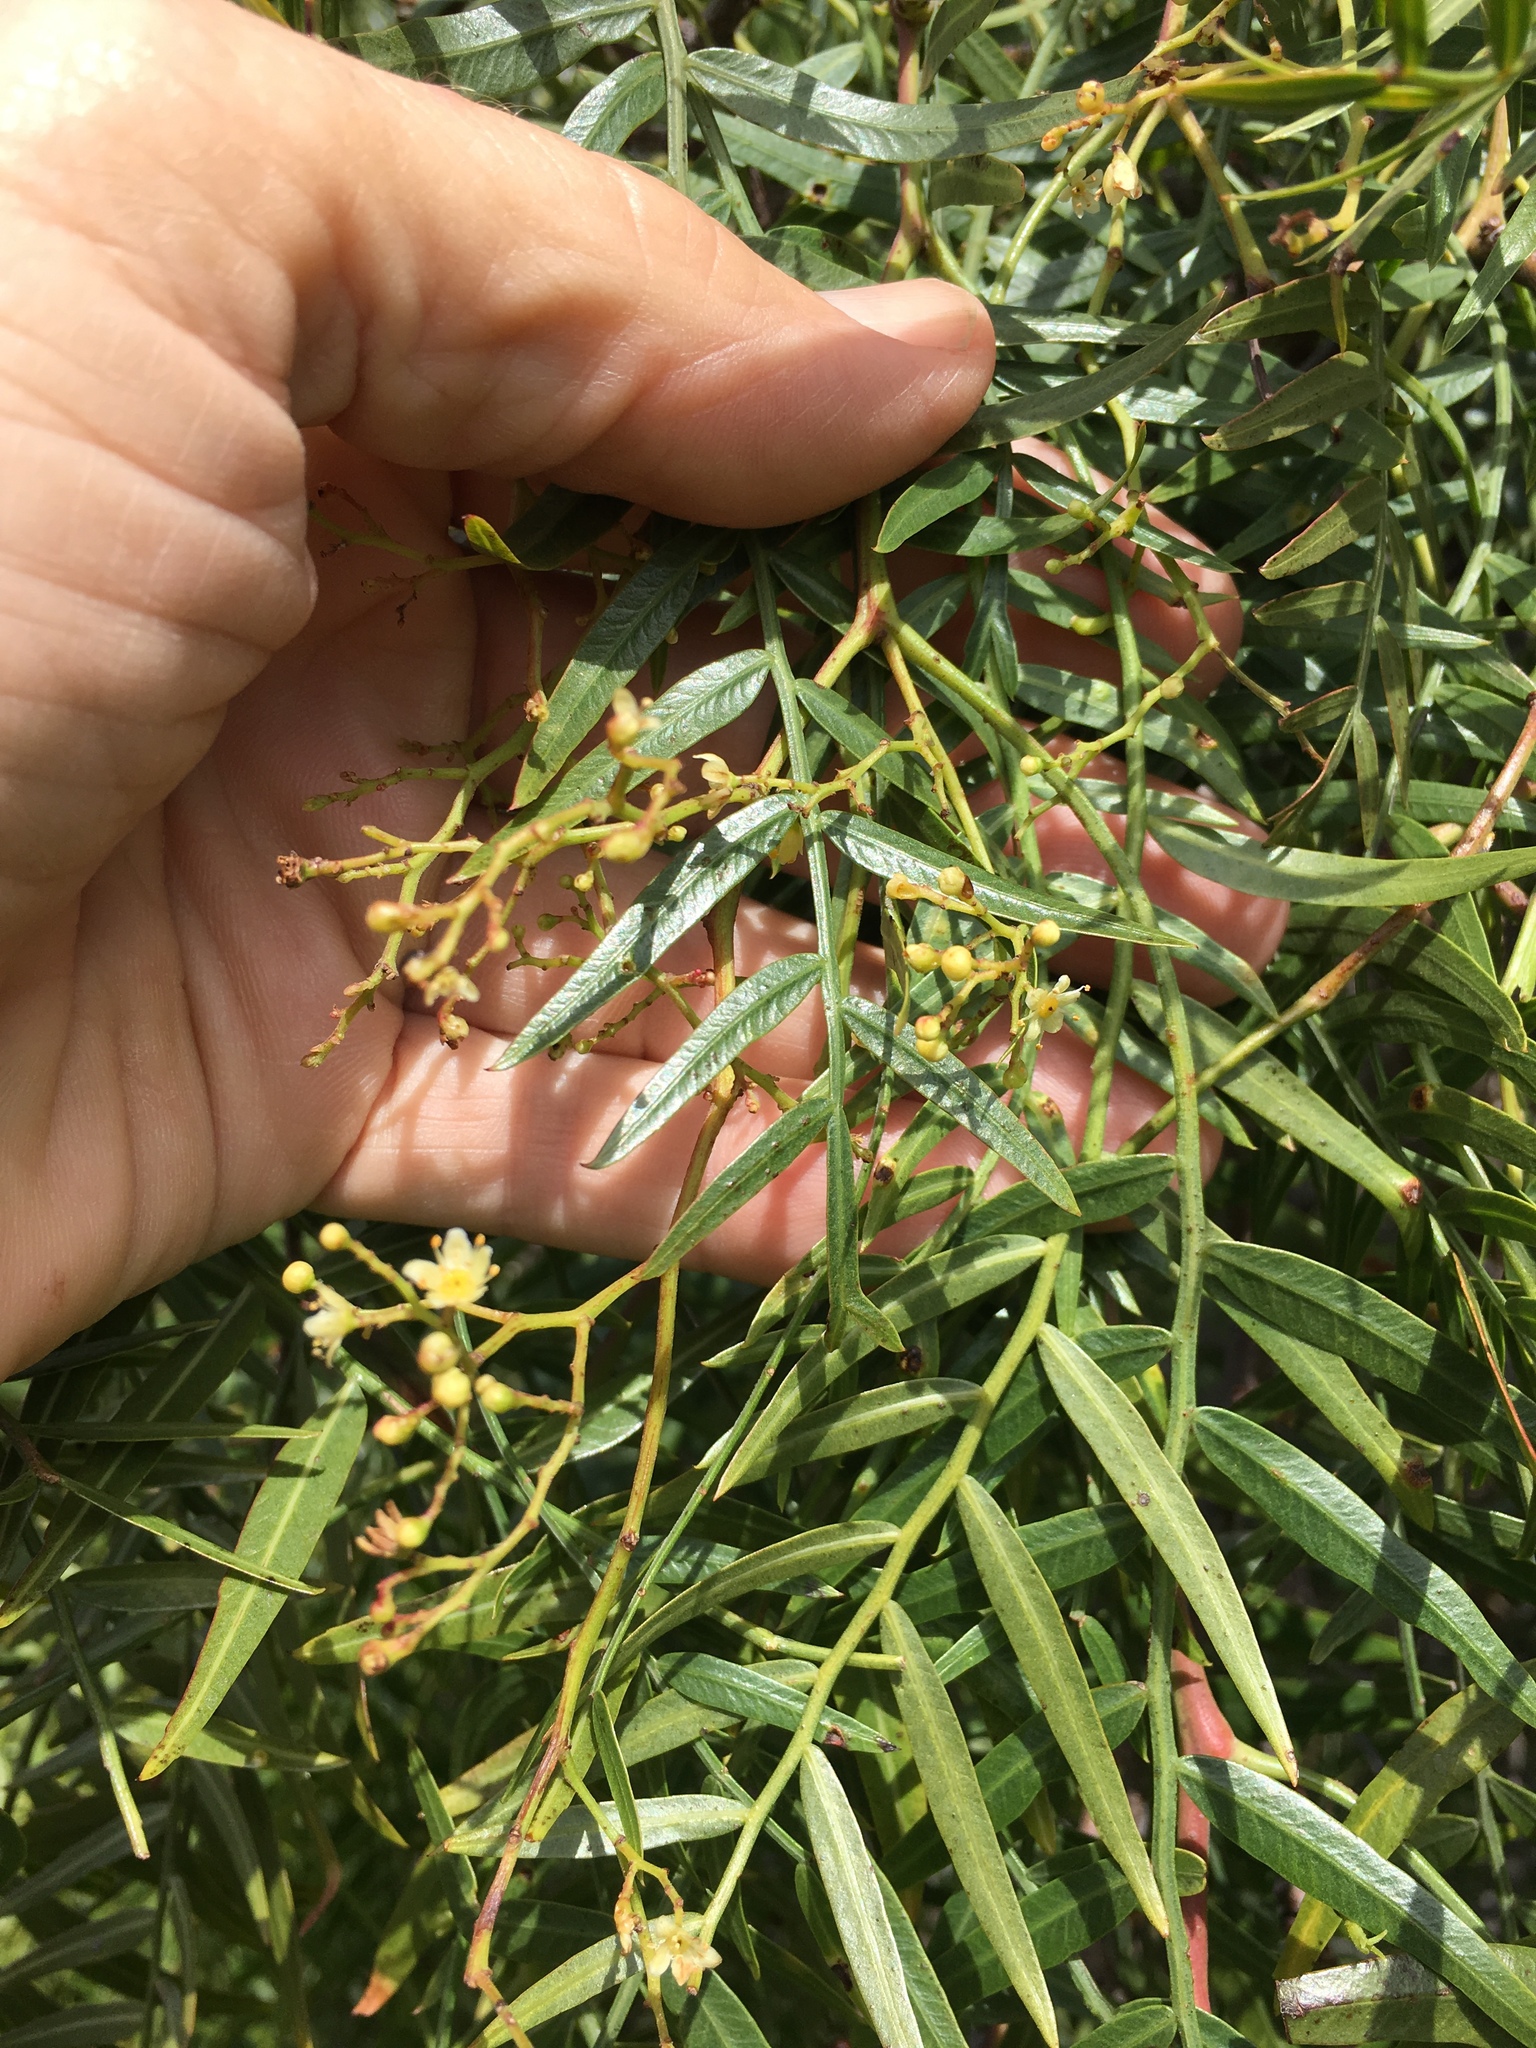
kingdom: Plantae
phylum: Tracheophyta
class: Magnoliopsida
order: Sapindales
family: Anacardiaceae
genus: Schinus
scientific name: Schinus molle
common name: Peruvian peppertree
